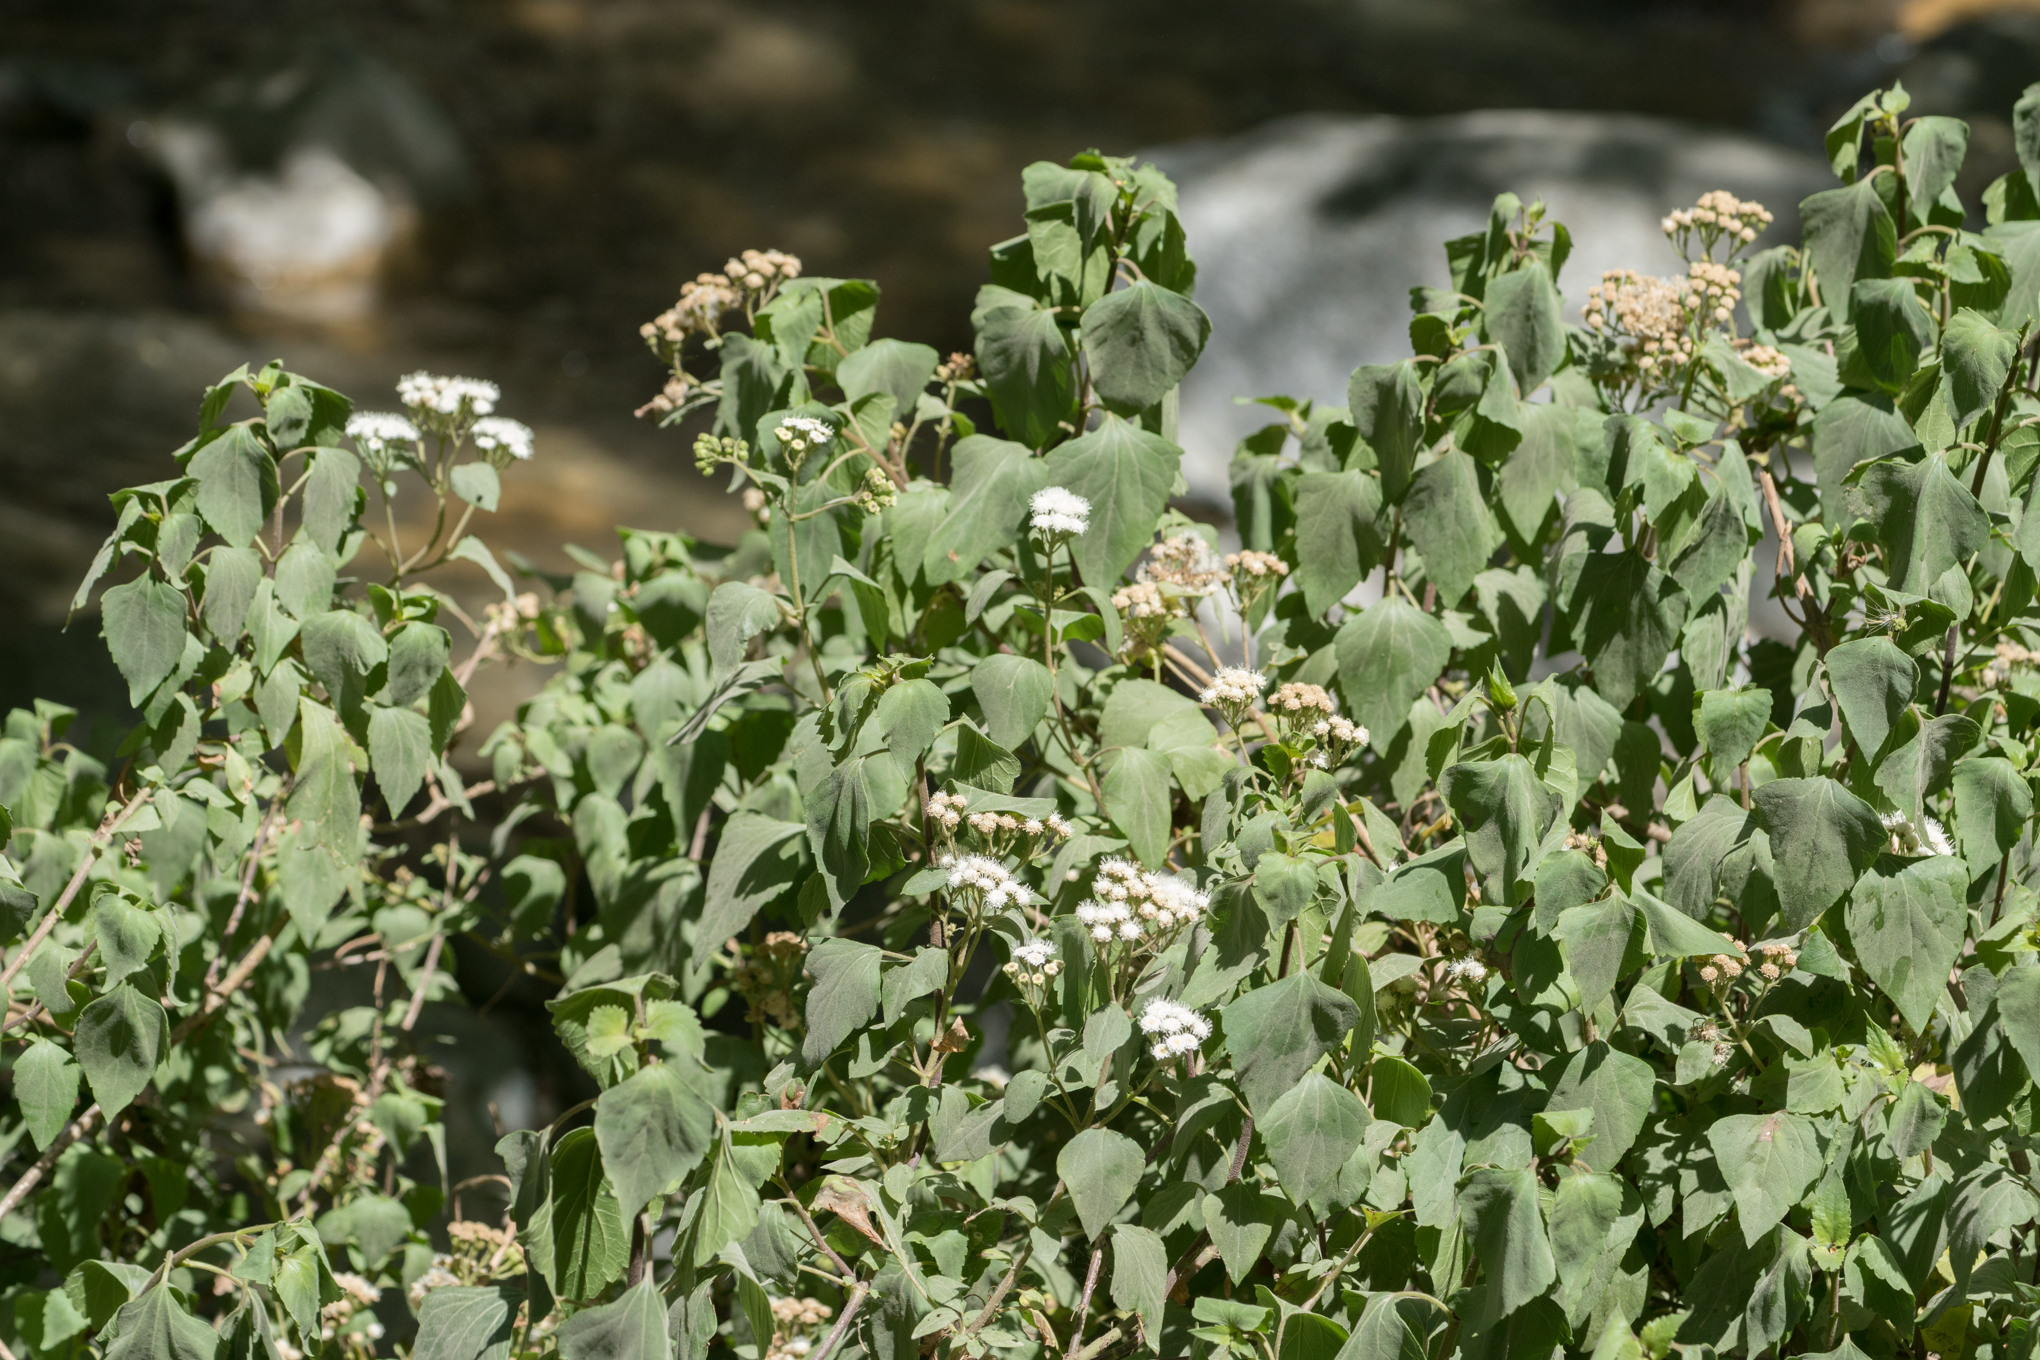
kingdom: Plantae
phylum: Tracheophyta
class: Magnoliopsida
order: Asterales
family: Asteraceae
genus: Ageratina
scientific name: Ageratina adenophora
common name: Sticky snakeroot
